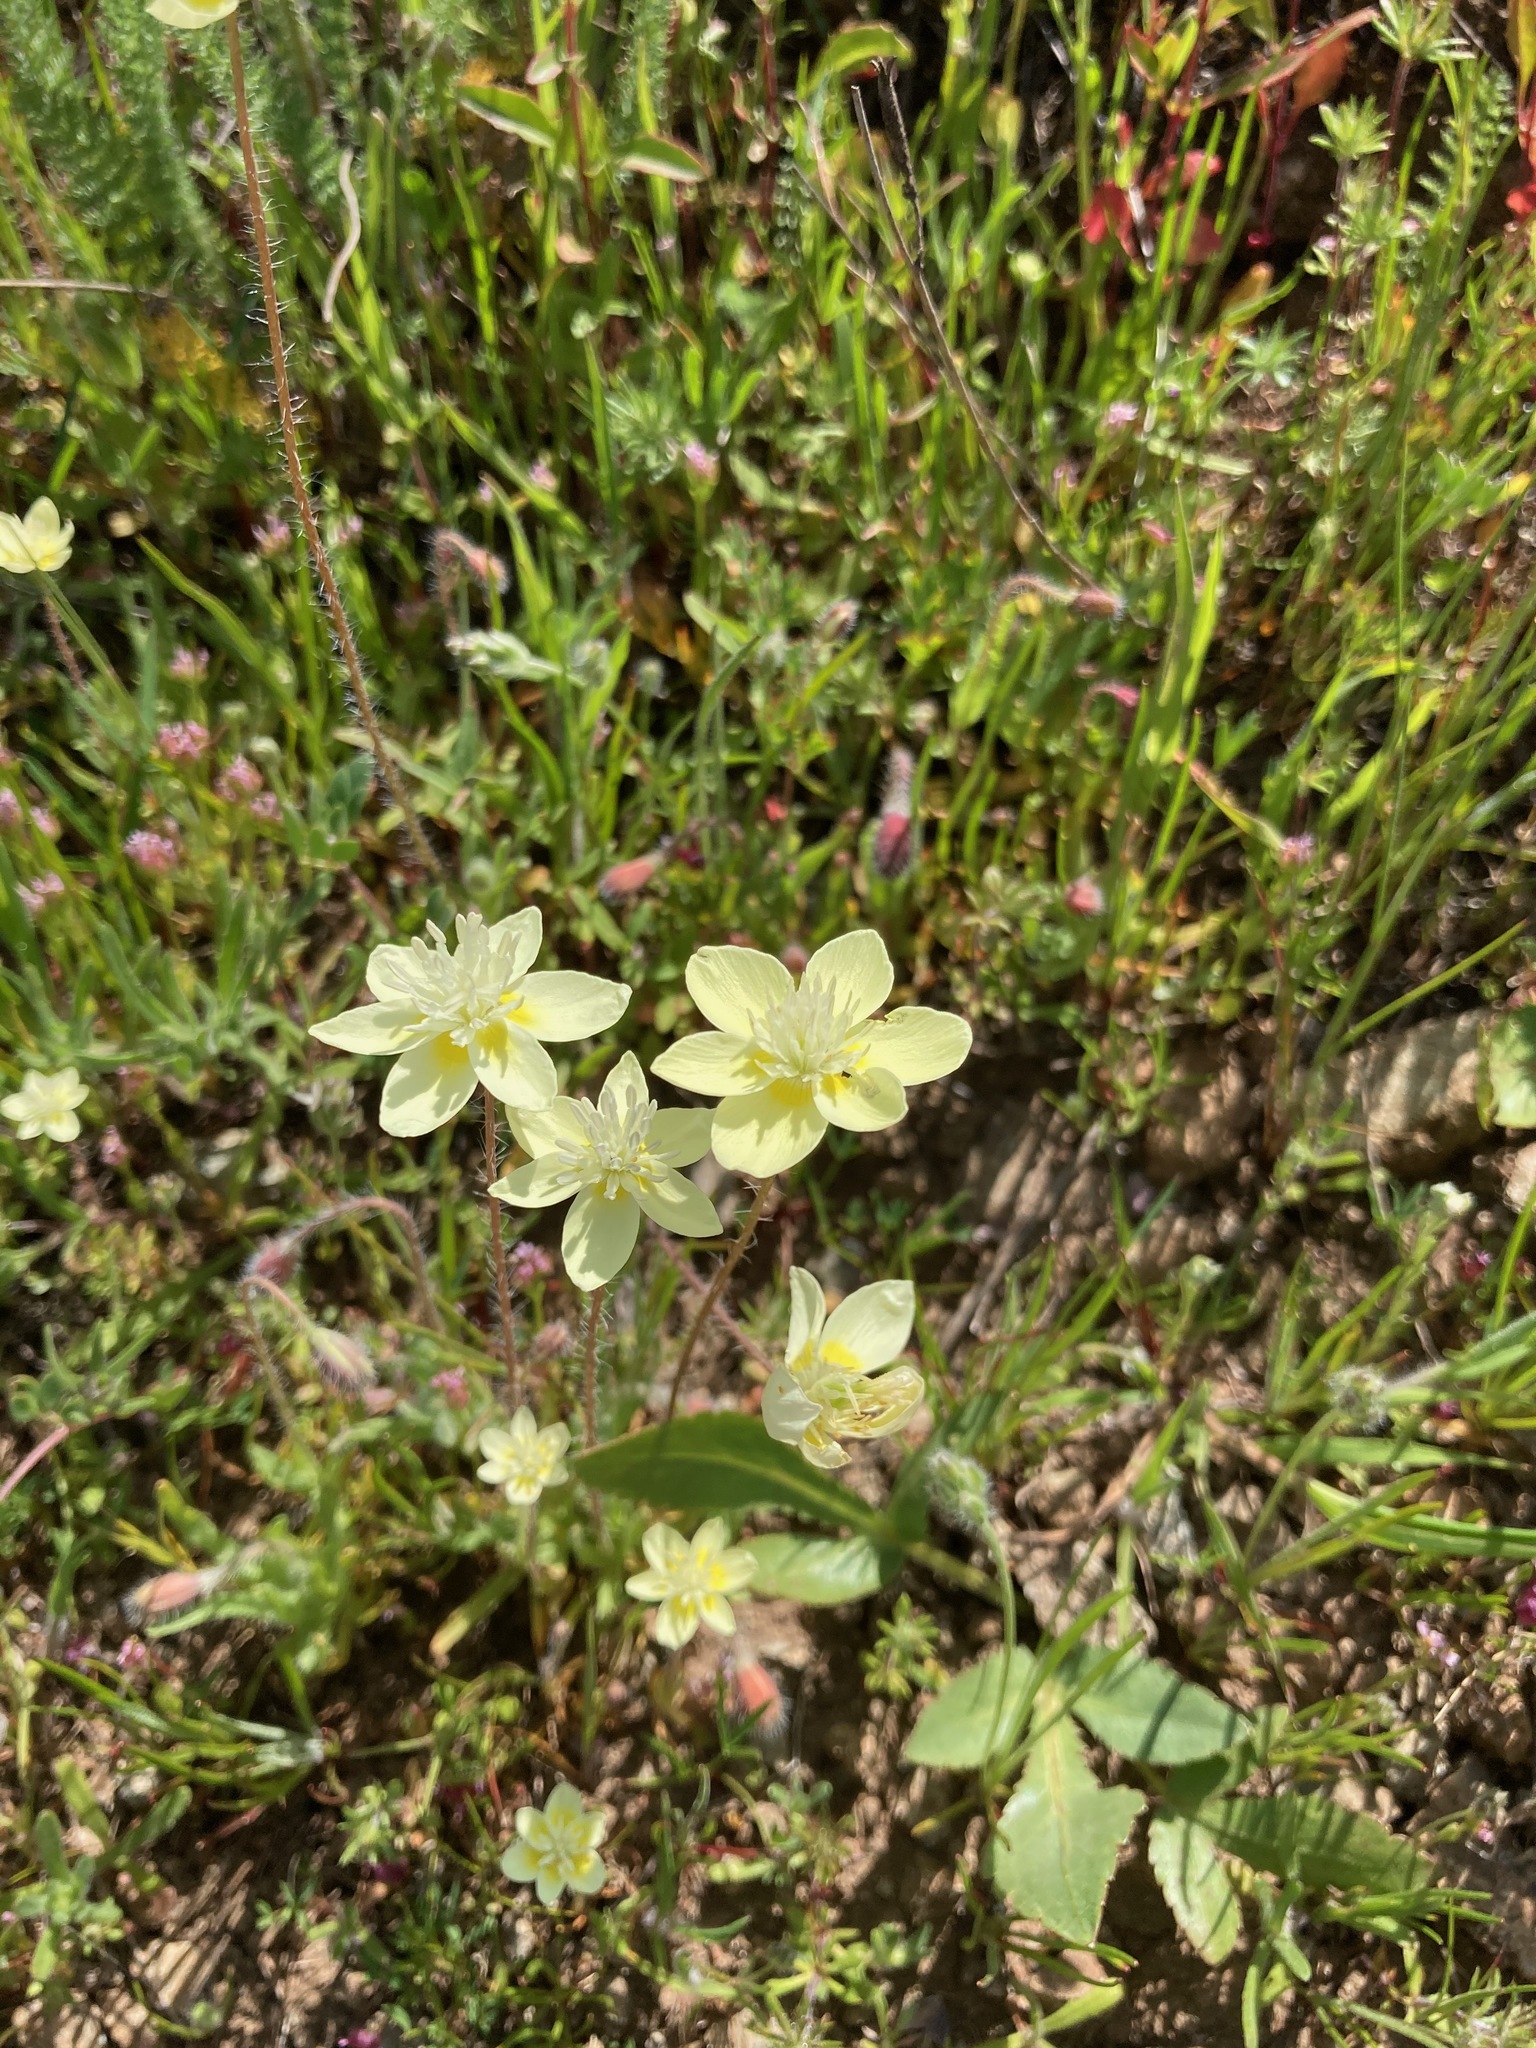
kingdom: Plantae
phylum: Tracheophyta
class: Magnoliopsida
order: Ranunculales
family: Papaveraceae
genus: Platystemon
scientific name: Platystemon californicus
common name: Cream-cups
